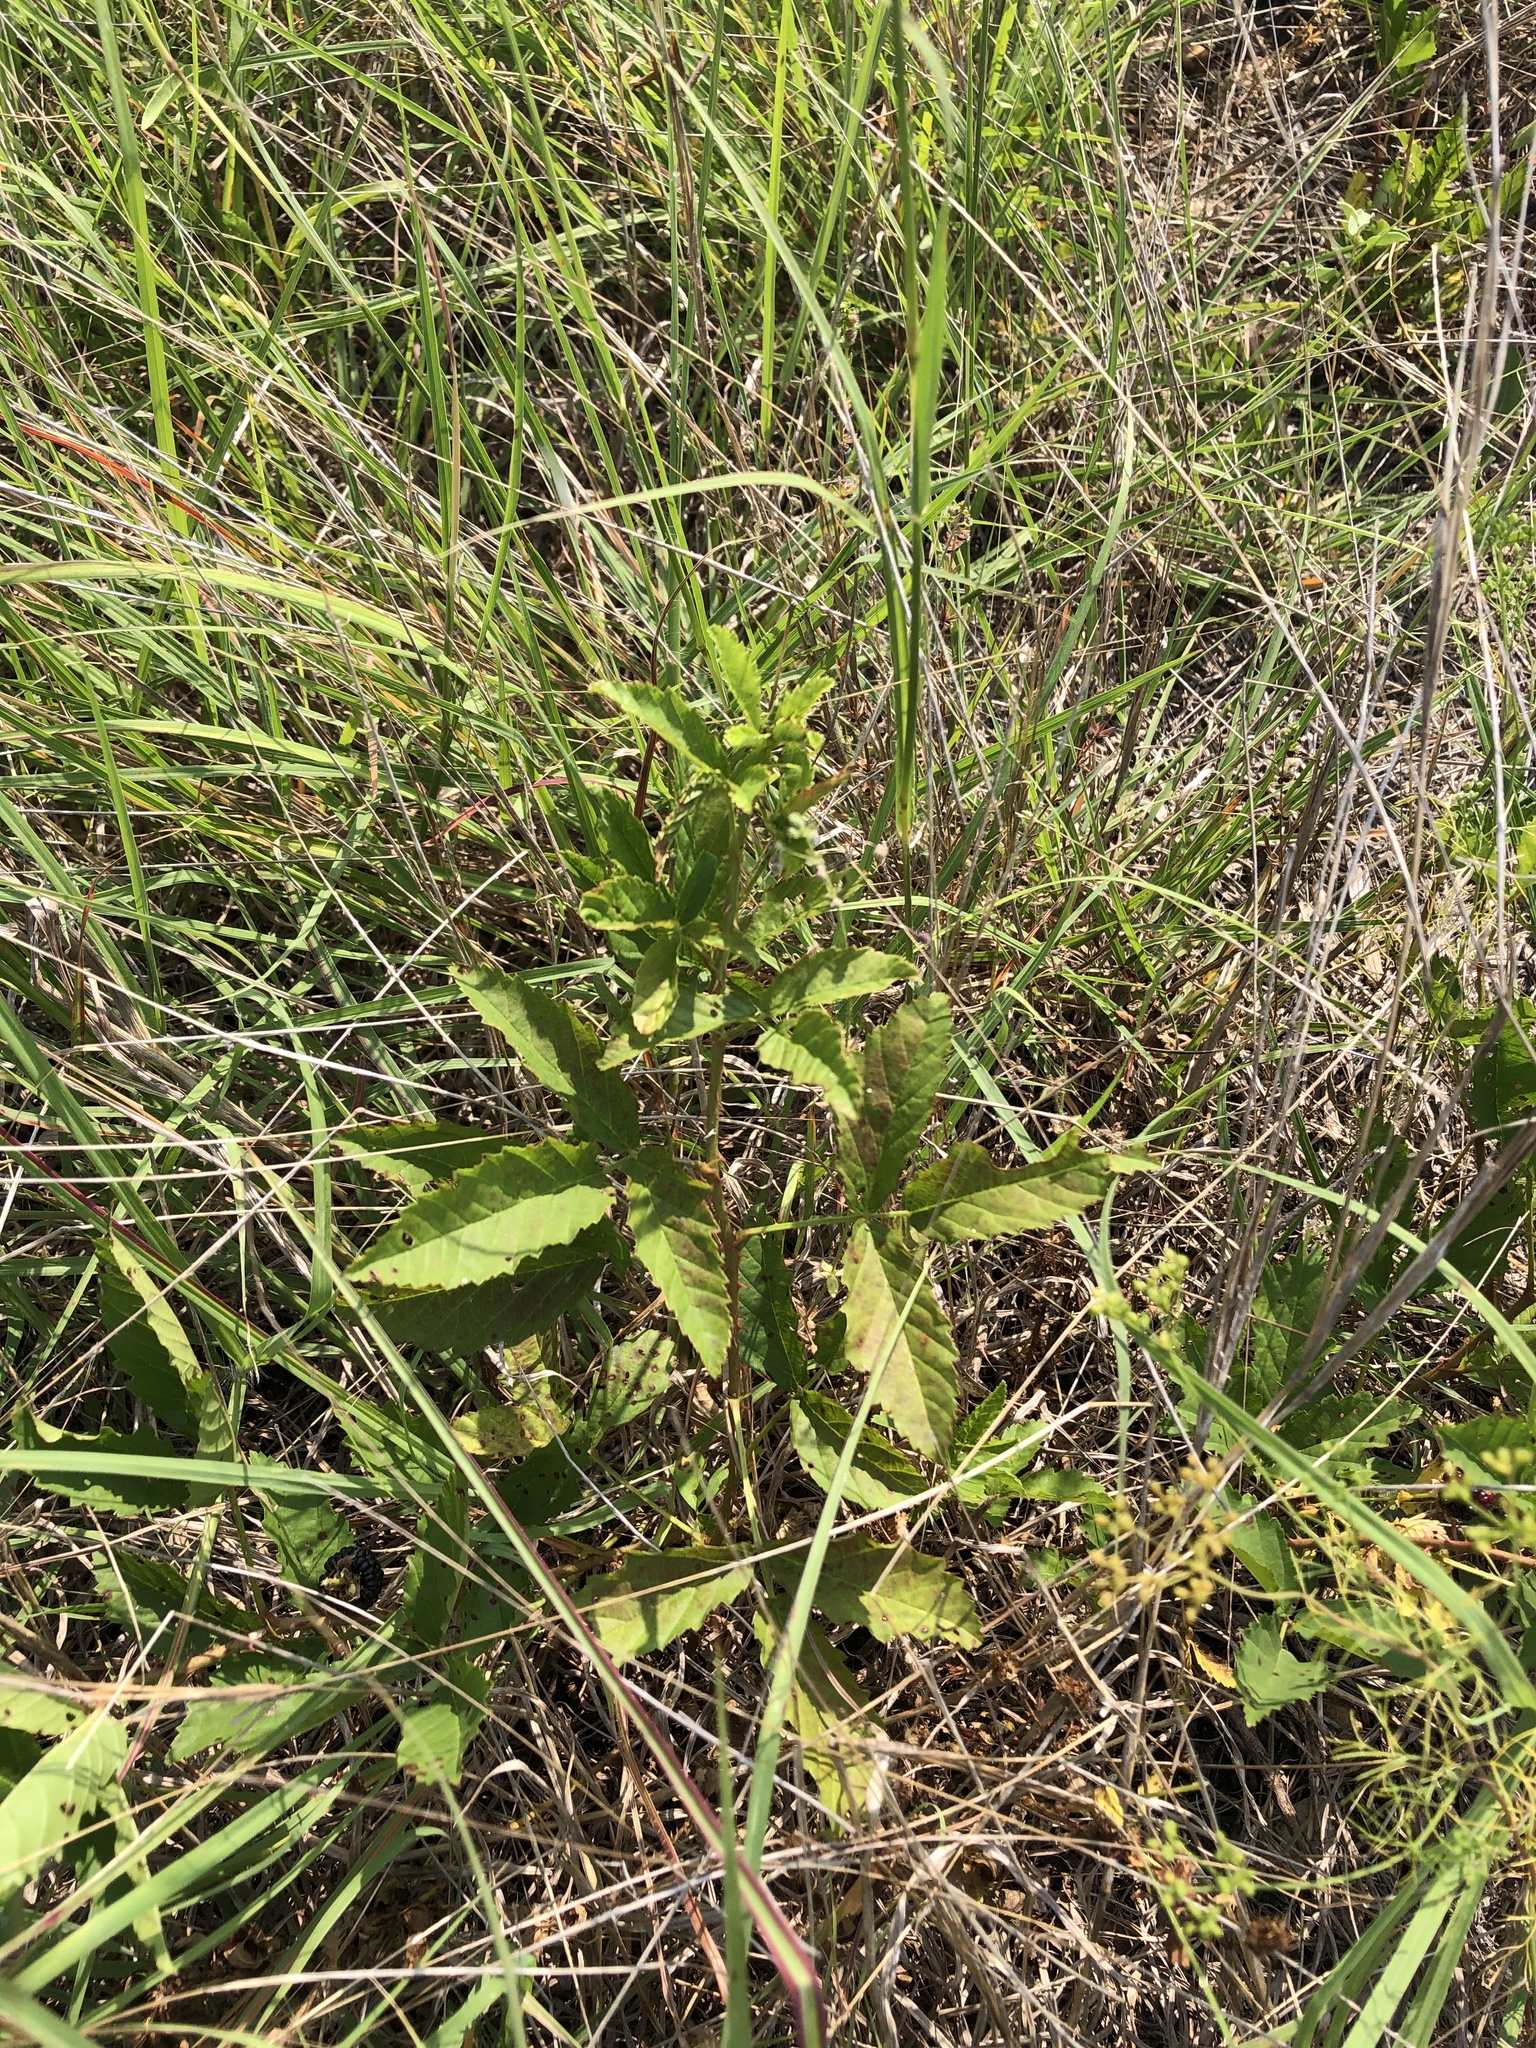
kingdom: Plantae
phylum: Tracheophyta
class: Magnoliopsida
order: Rosales
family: Rosaceae
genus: Rubus
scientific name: Rubus trivialis
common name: Southern dewberry
